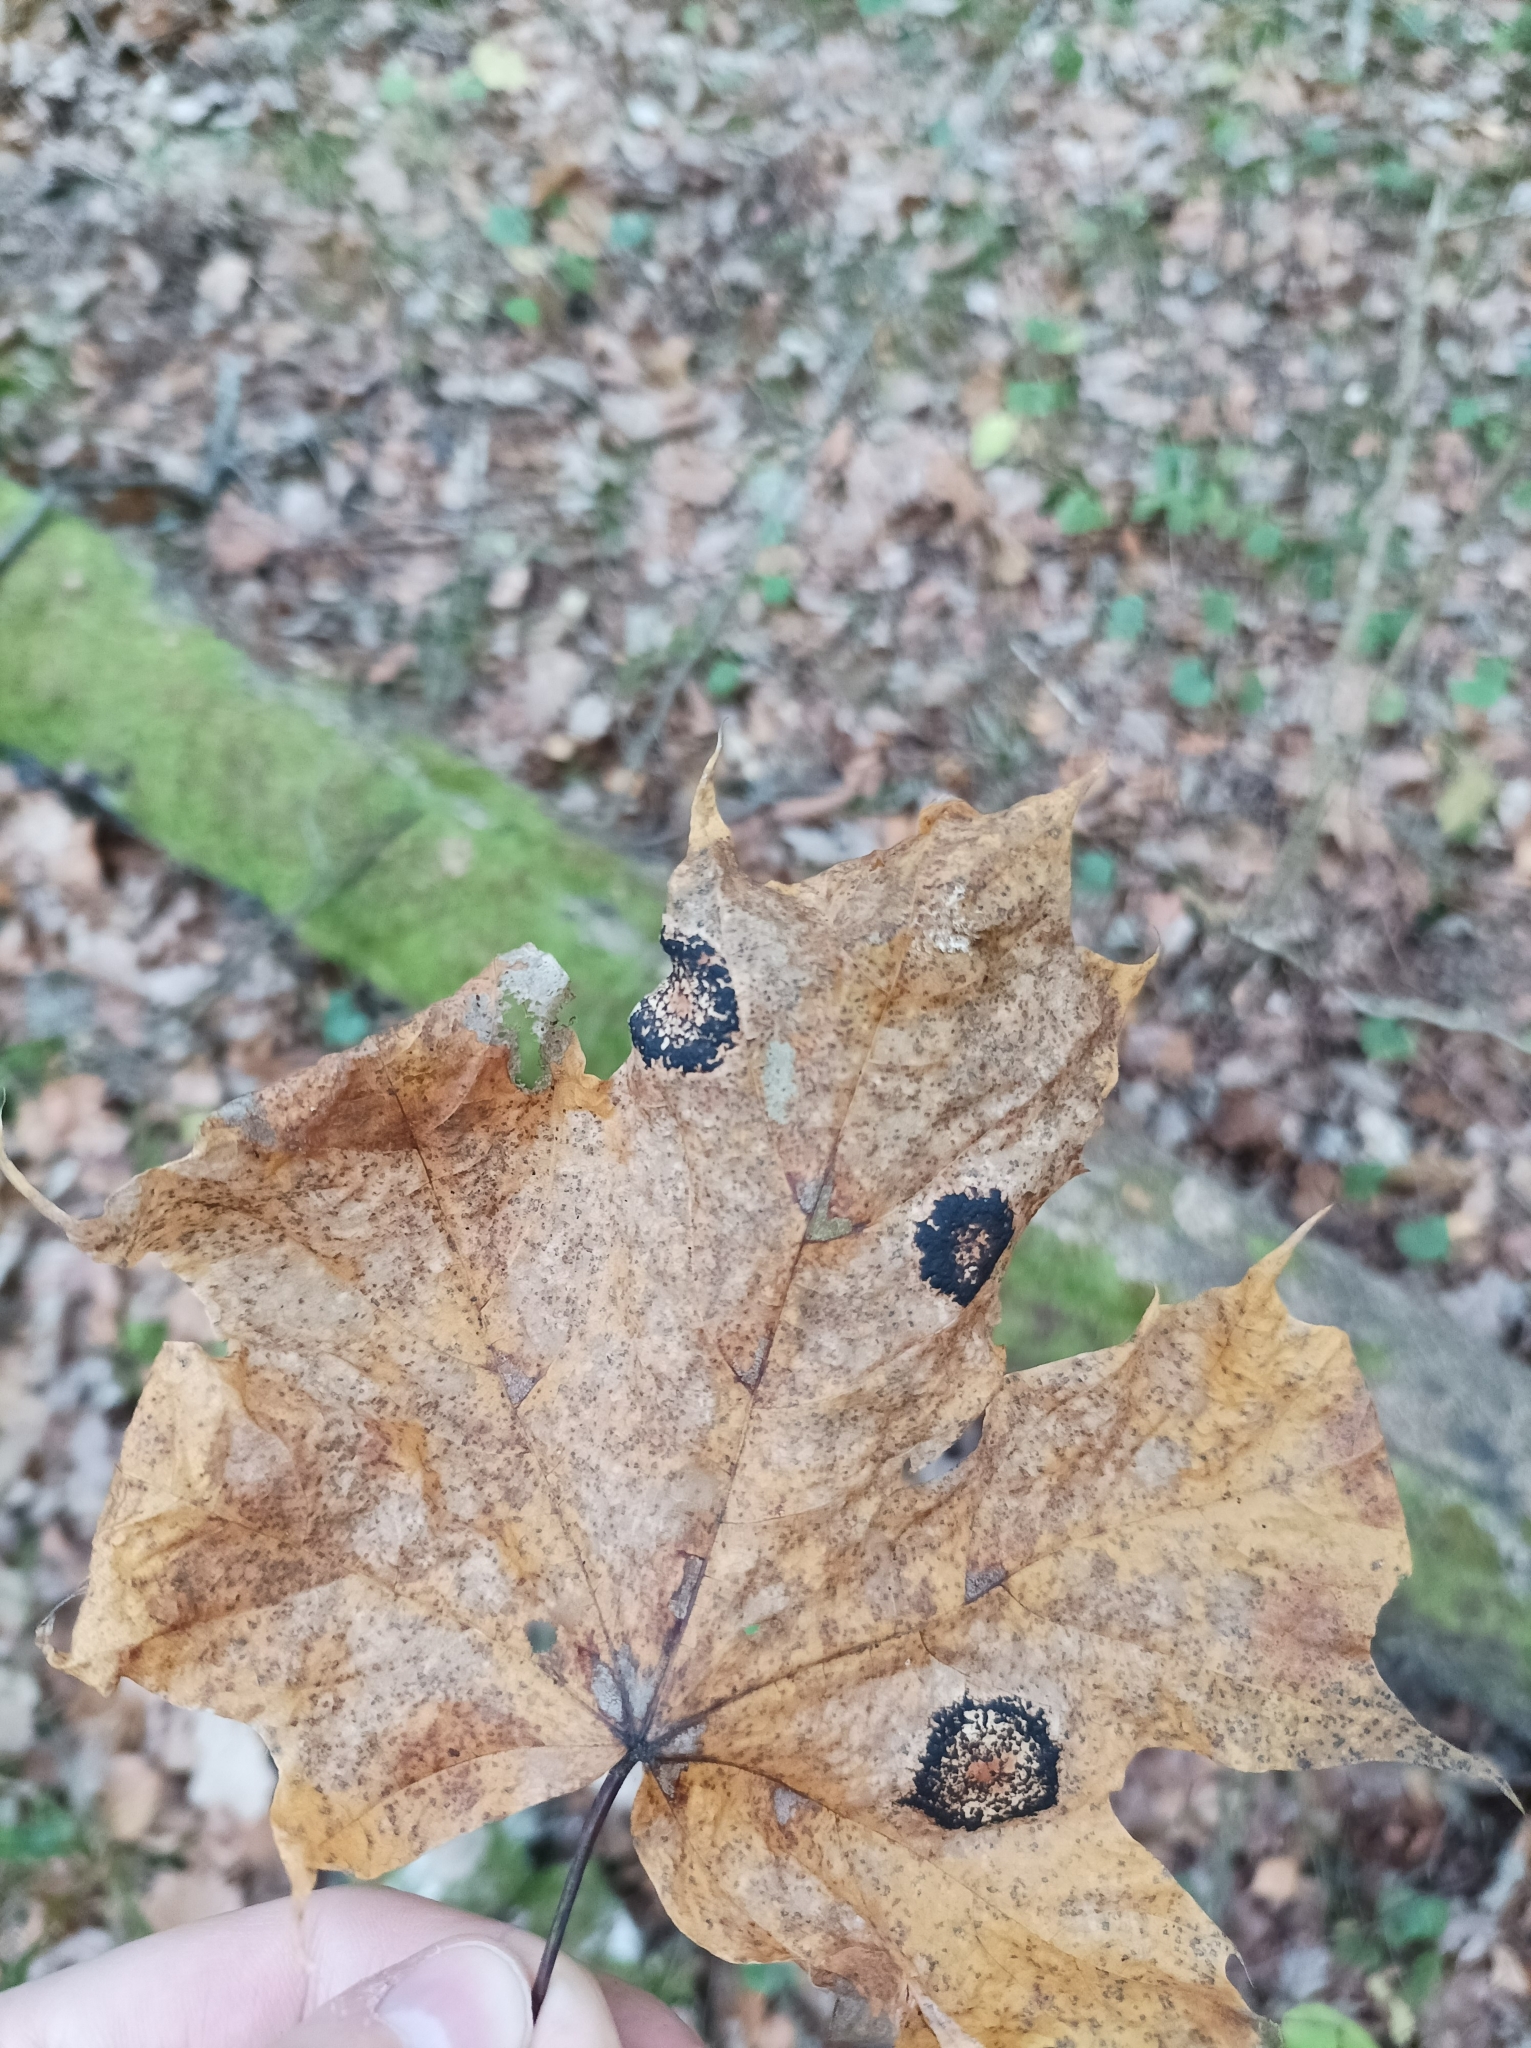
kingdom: Fungi
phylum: Ascomycota
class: Leotiomycetes
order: Rhytismatales
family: Rhytismataceae
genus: Rhytisma
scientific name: Rhytisma acerinum
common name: European tar spot
